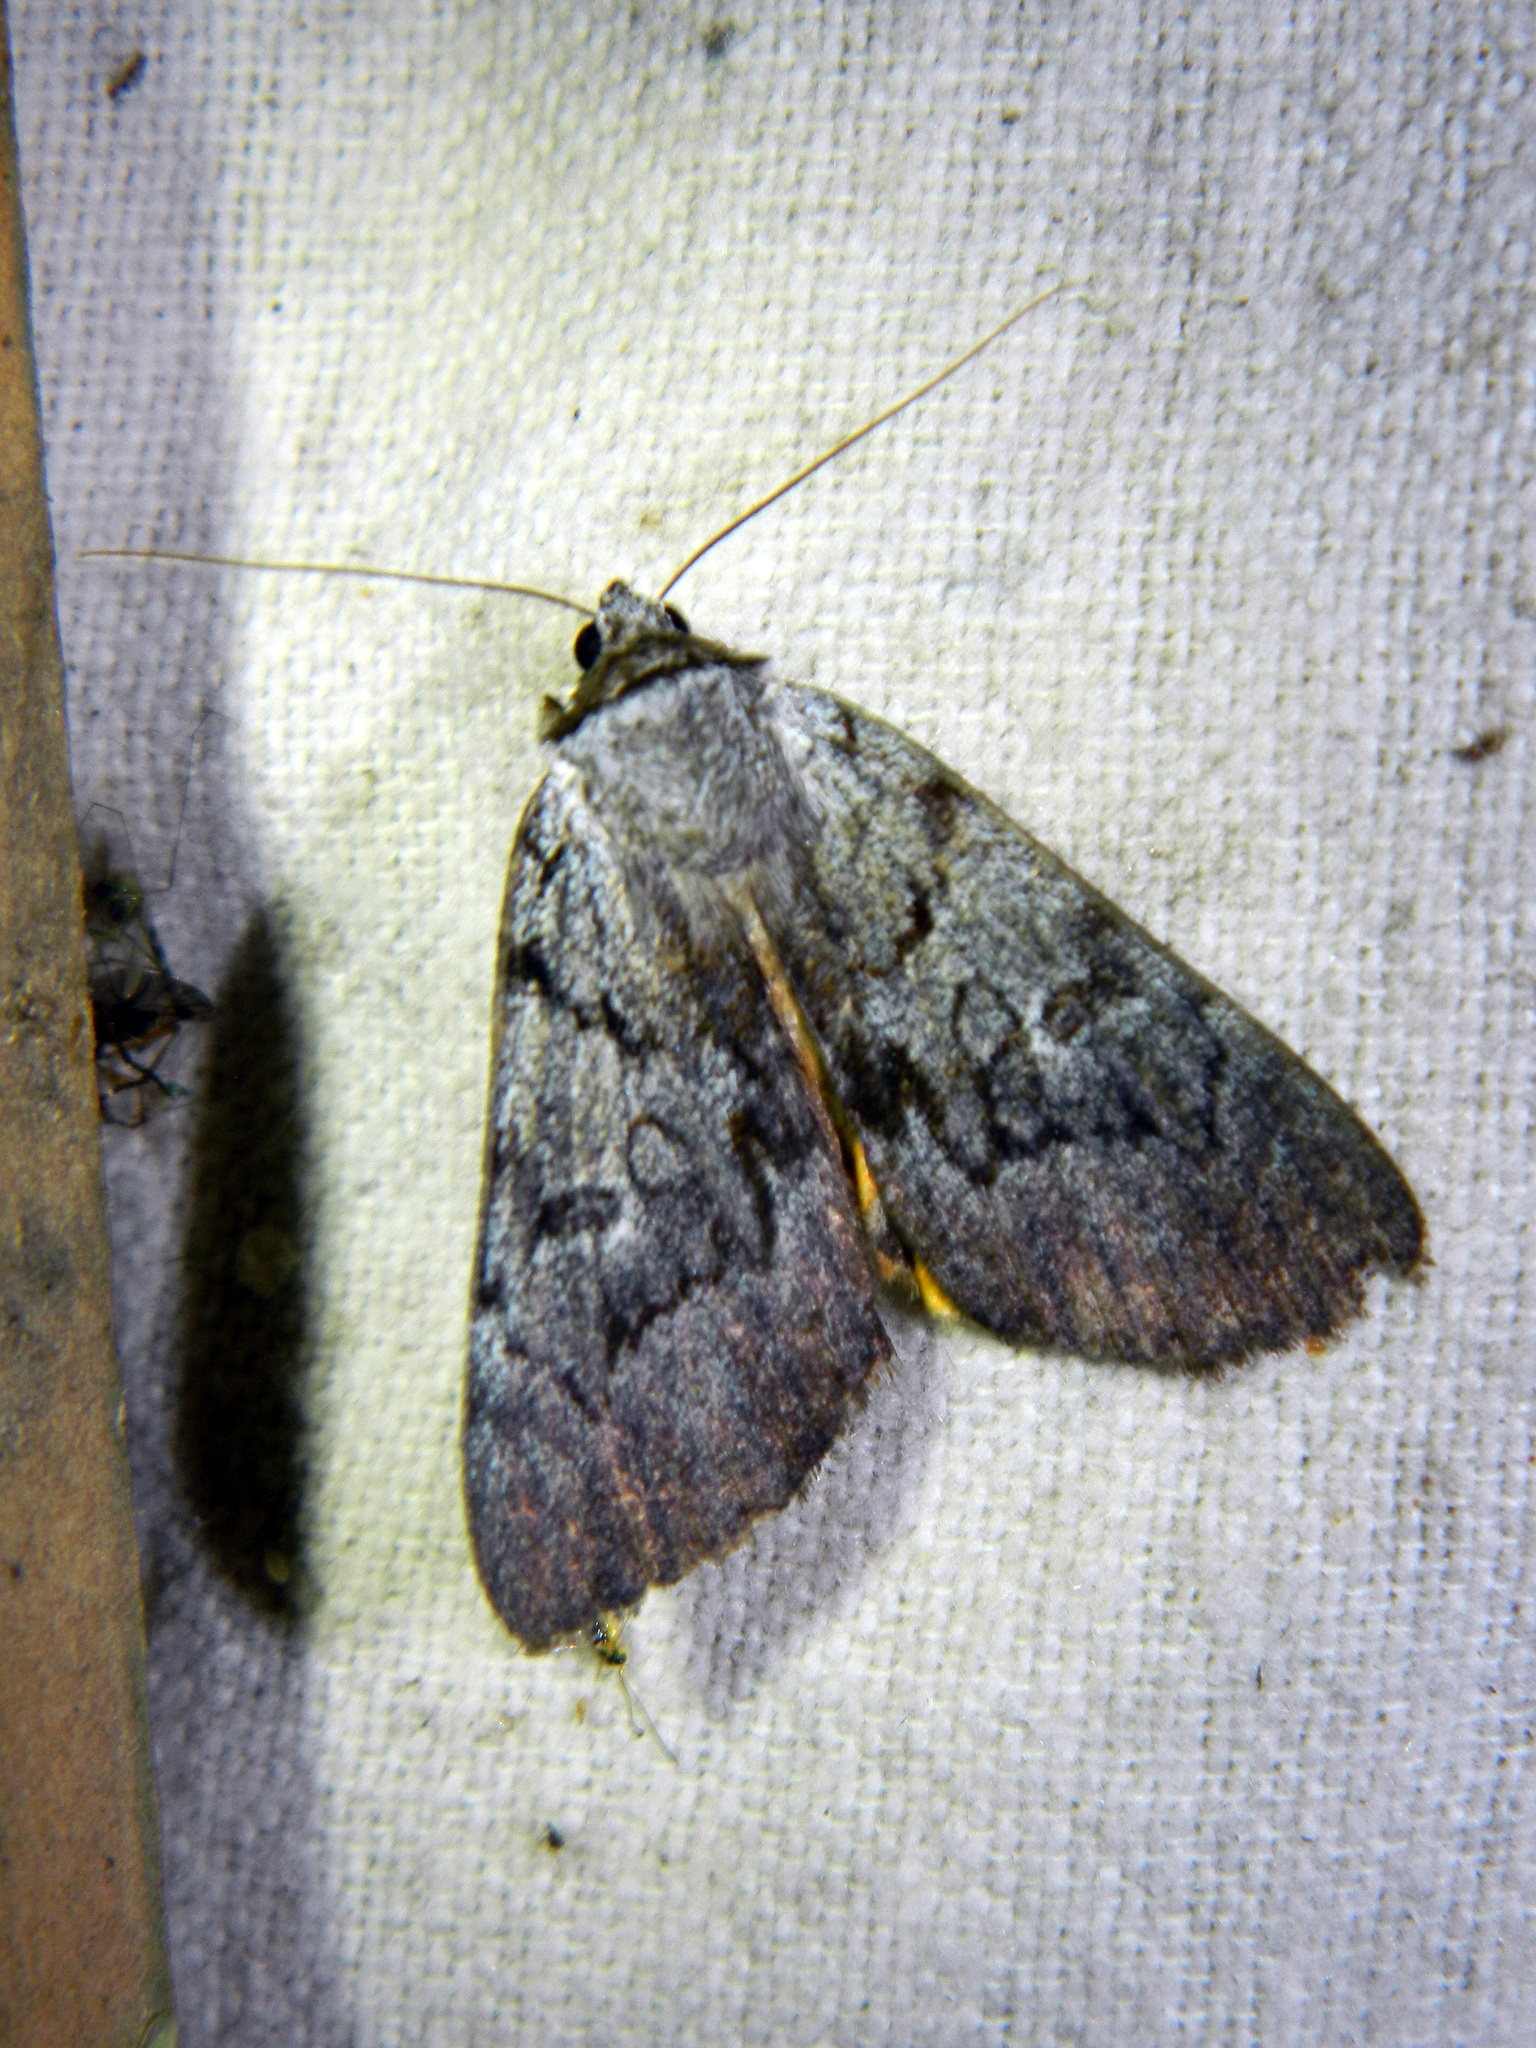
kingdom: Animalia
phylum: Arthropoda
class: Insecta
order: Lepidoptera
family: Erebidae
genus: Catocala
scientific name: Catocala sordida
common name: Sordid underwing
